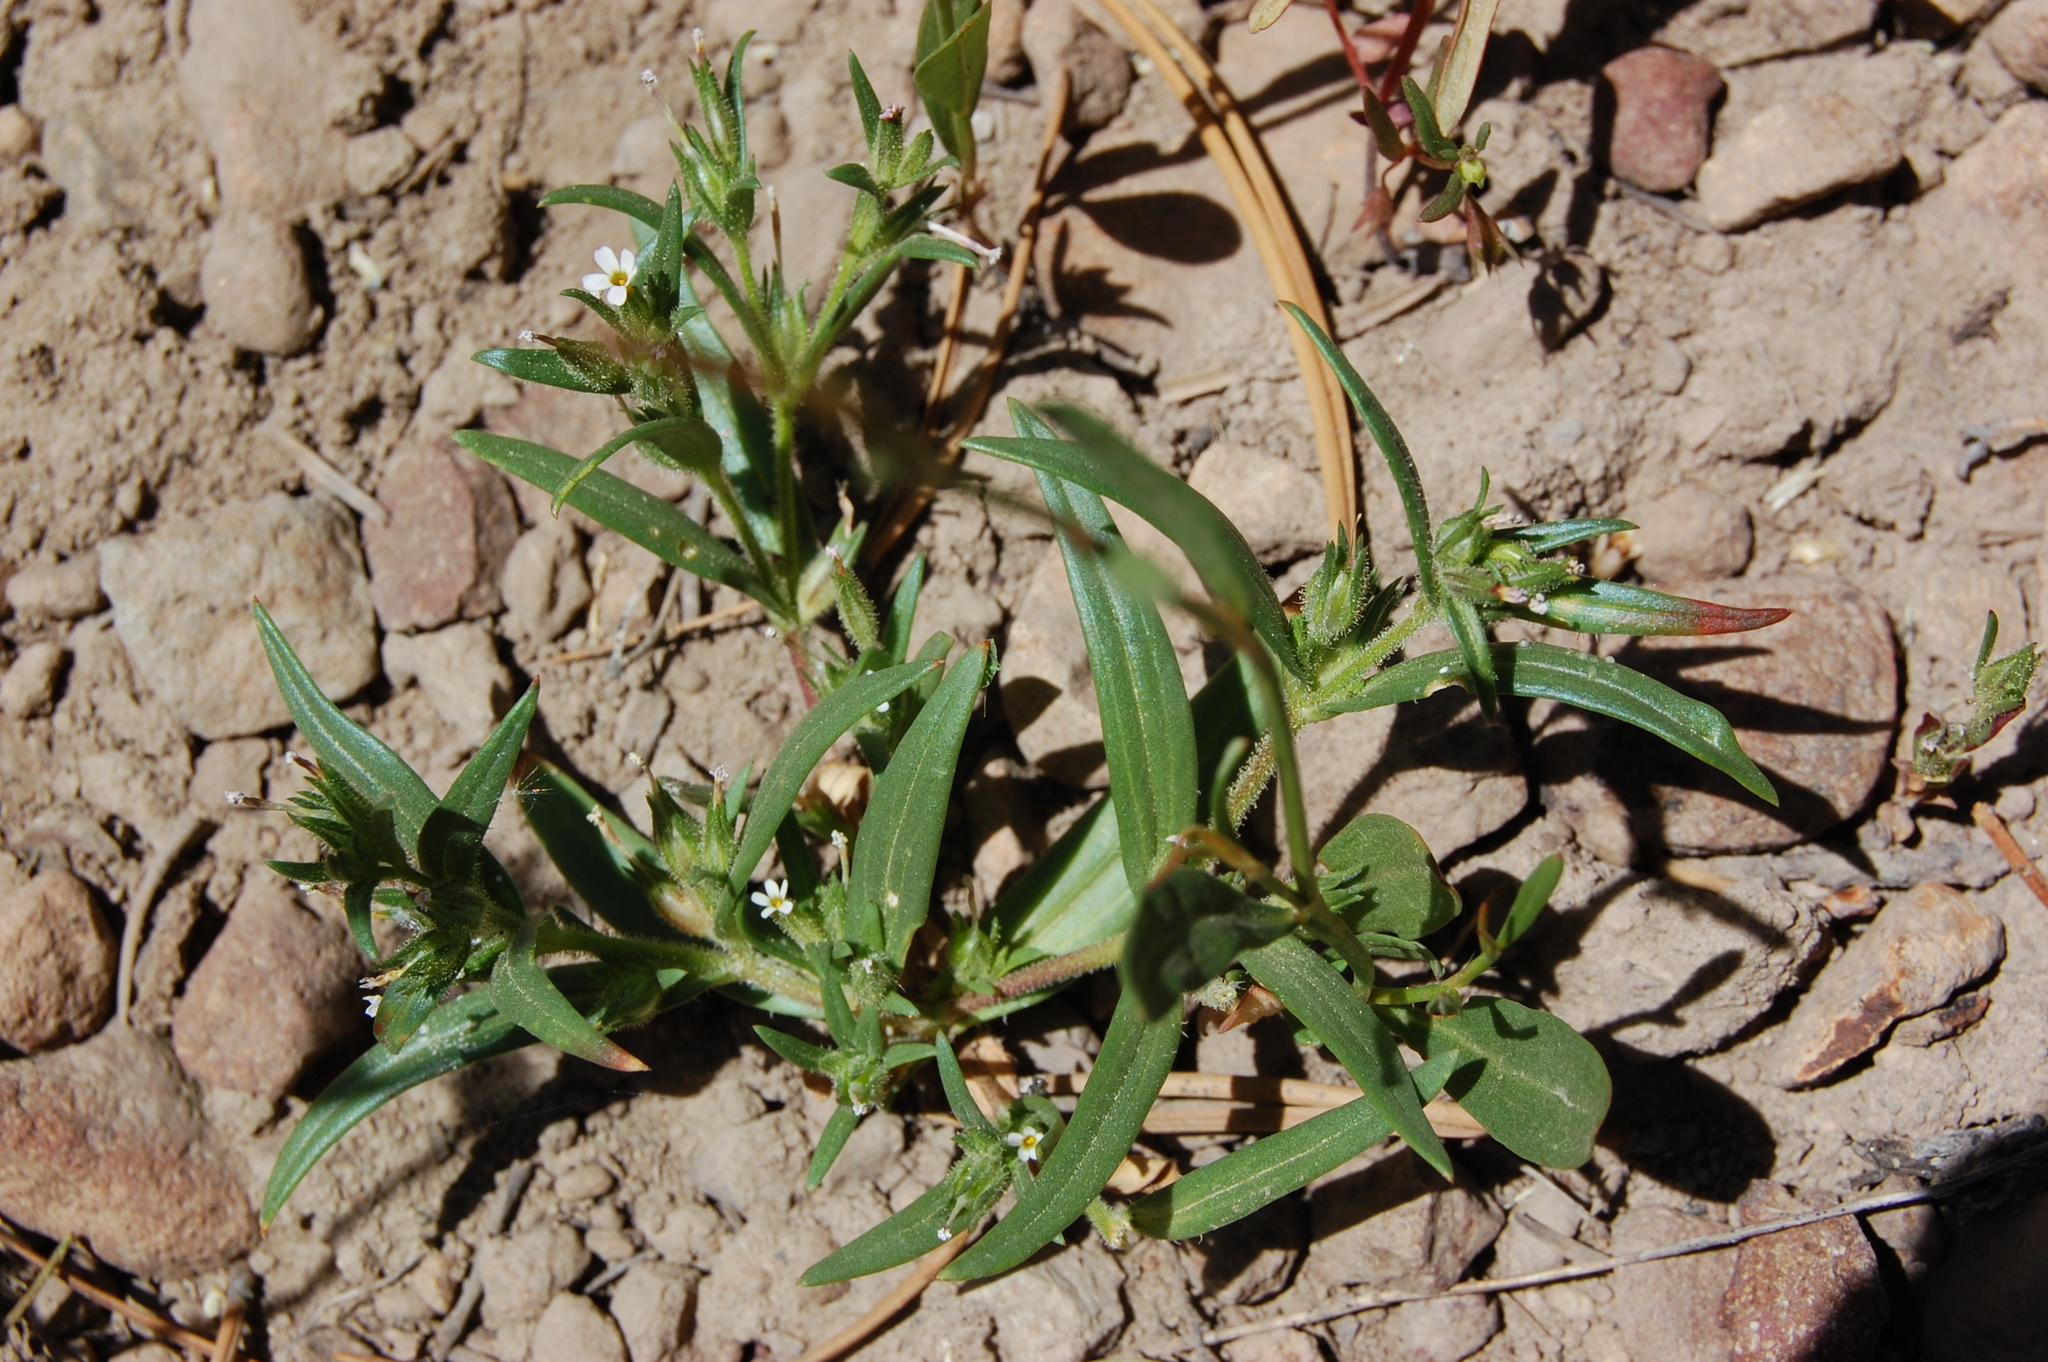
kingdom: Plantae
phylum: Tracheophyta
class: Magnoliopsida
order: Ericales
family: Polemoniaceae
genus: Collomia
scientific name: Collomia linearis
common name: Tiny trumpet
